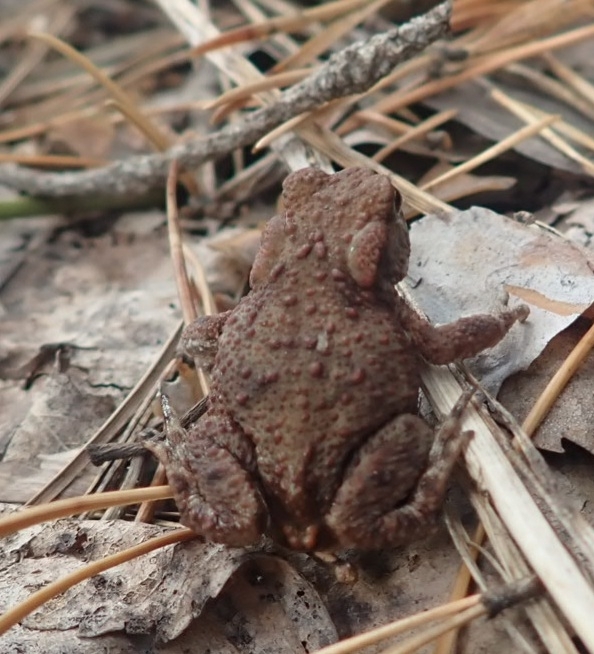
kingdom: Animalia
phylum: Chordata
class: Amphibia
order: Anura
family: Bufonidae
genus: Bufo
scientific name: Bufo bufo
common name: Common toad
